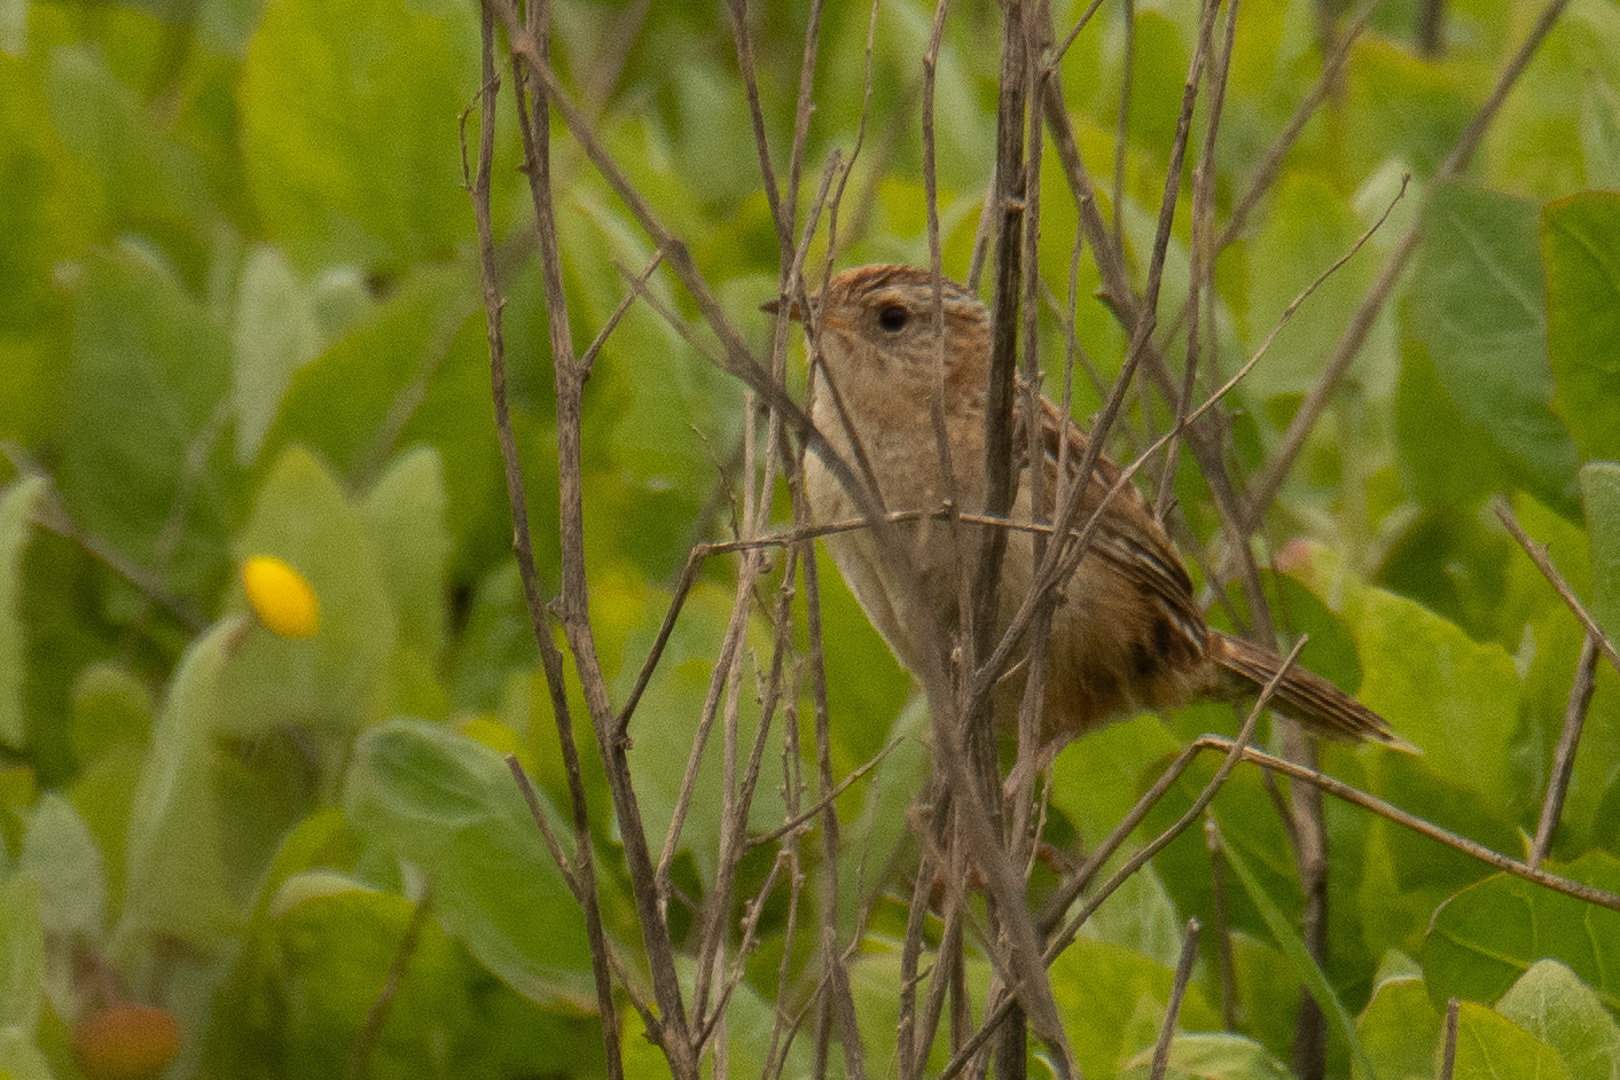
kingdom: Animalia
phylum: Chordata
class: Aves
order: Passeriformes
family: Troglodytidae
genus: Cistothorus
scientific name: Cistothorus platensis
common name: Sedge wren
